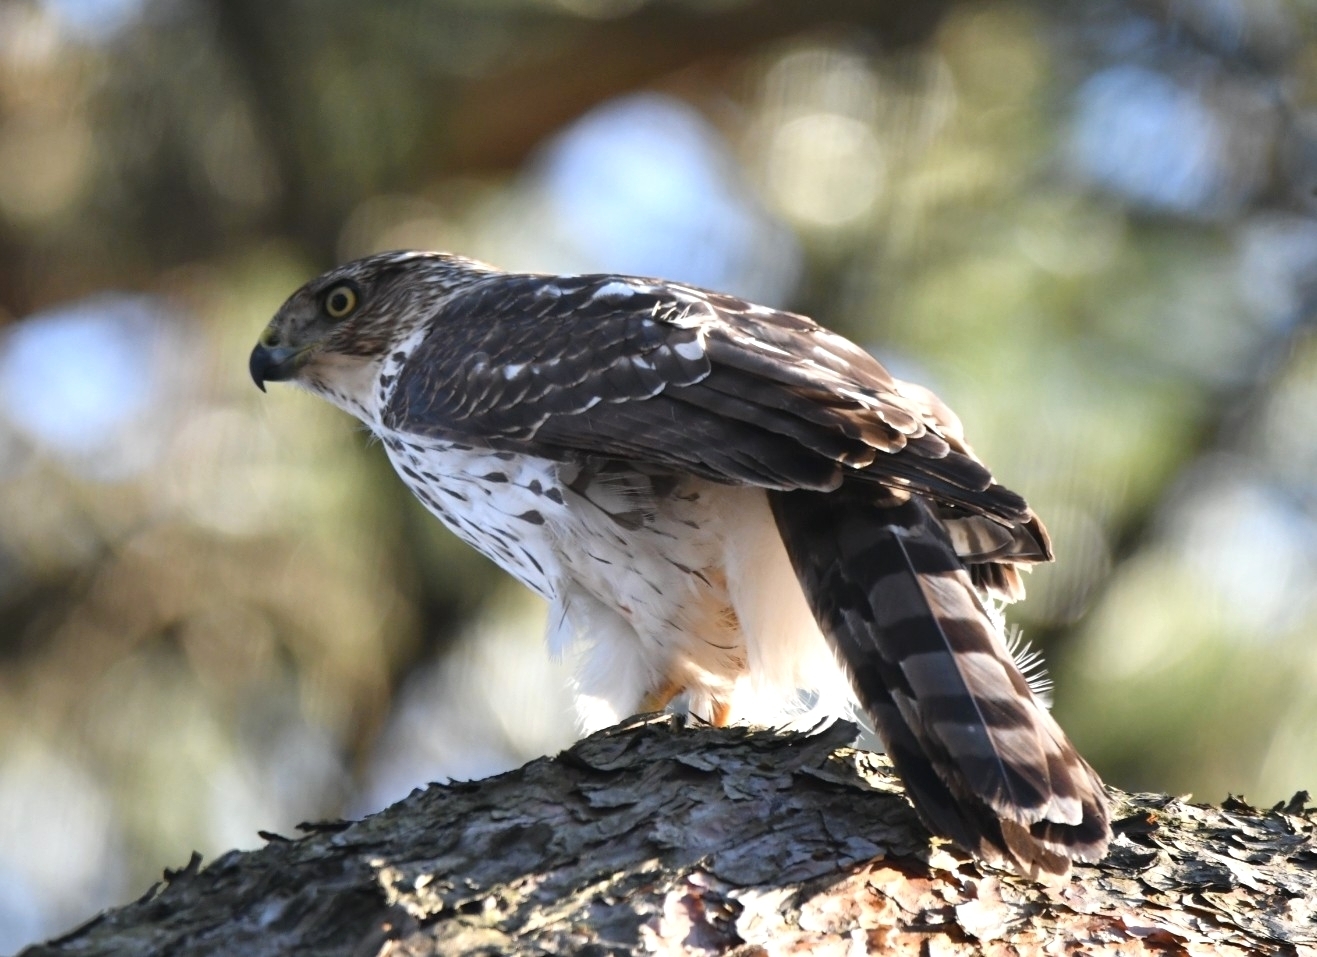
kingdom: Animalia
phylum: Chordata
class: Aves
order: Accipitriformes
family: Accipitridae
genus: Accipiter
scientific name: Accipiter cooperii
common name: Cooper's hawk
